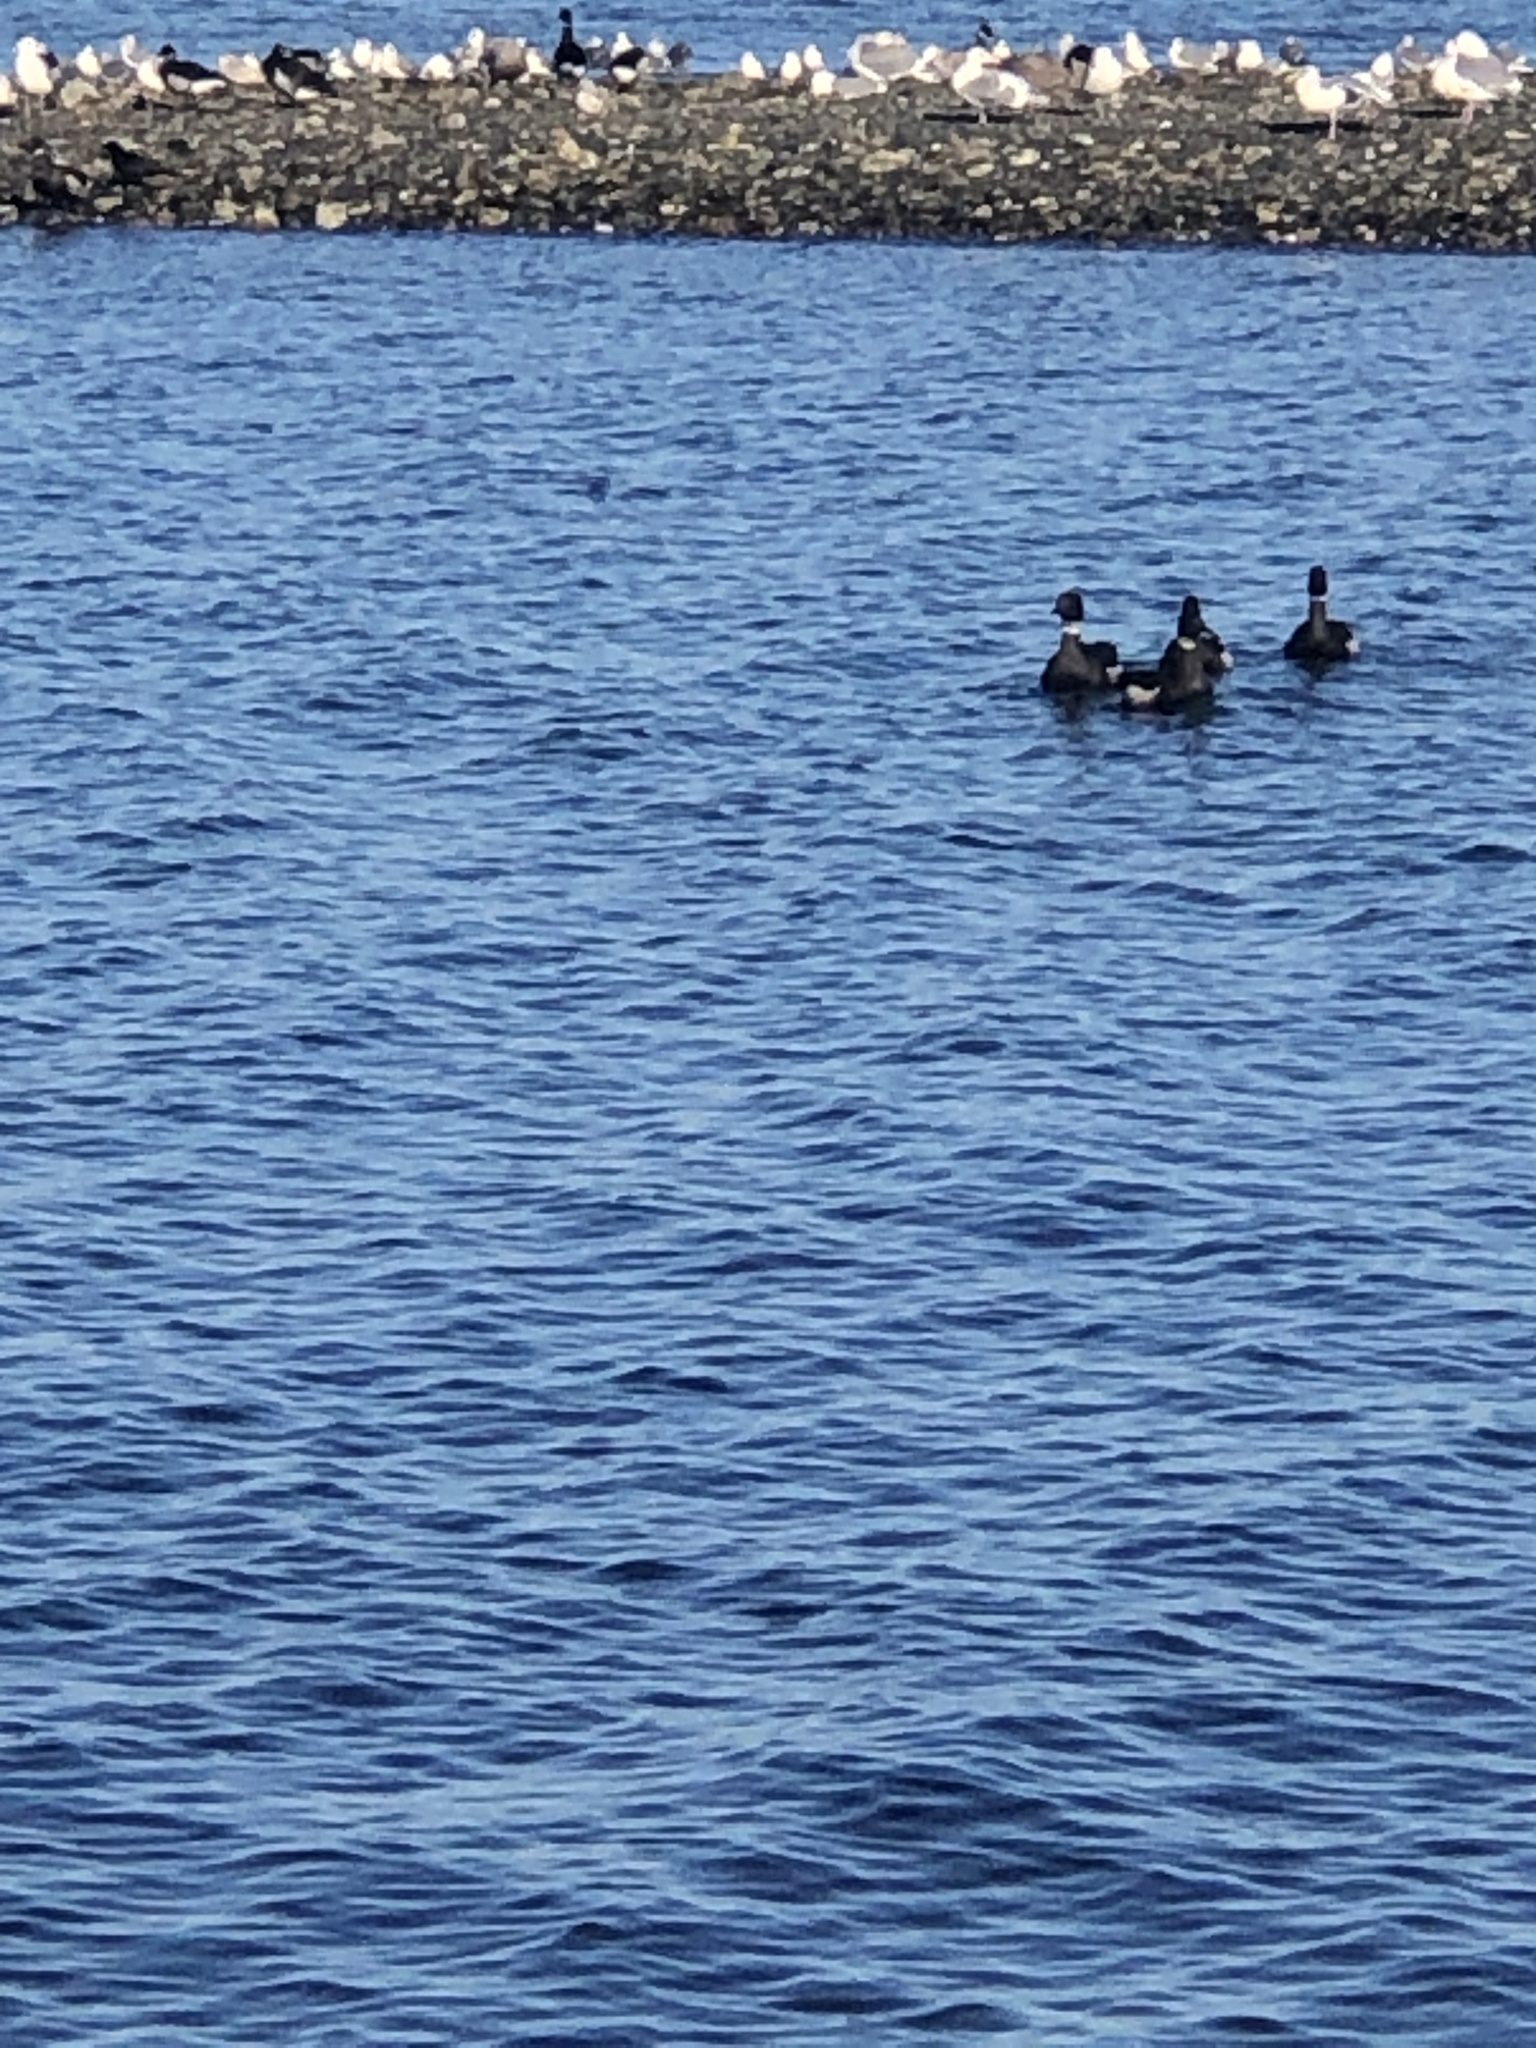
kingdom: Animalia
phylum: Chordata
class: Aves
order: Anseriformes
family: Anatidae
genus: Branta
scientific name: Branta bernicla
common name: Brant goose
